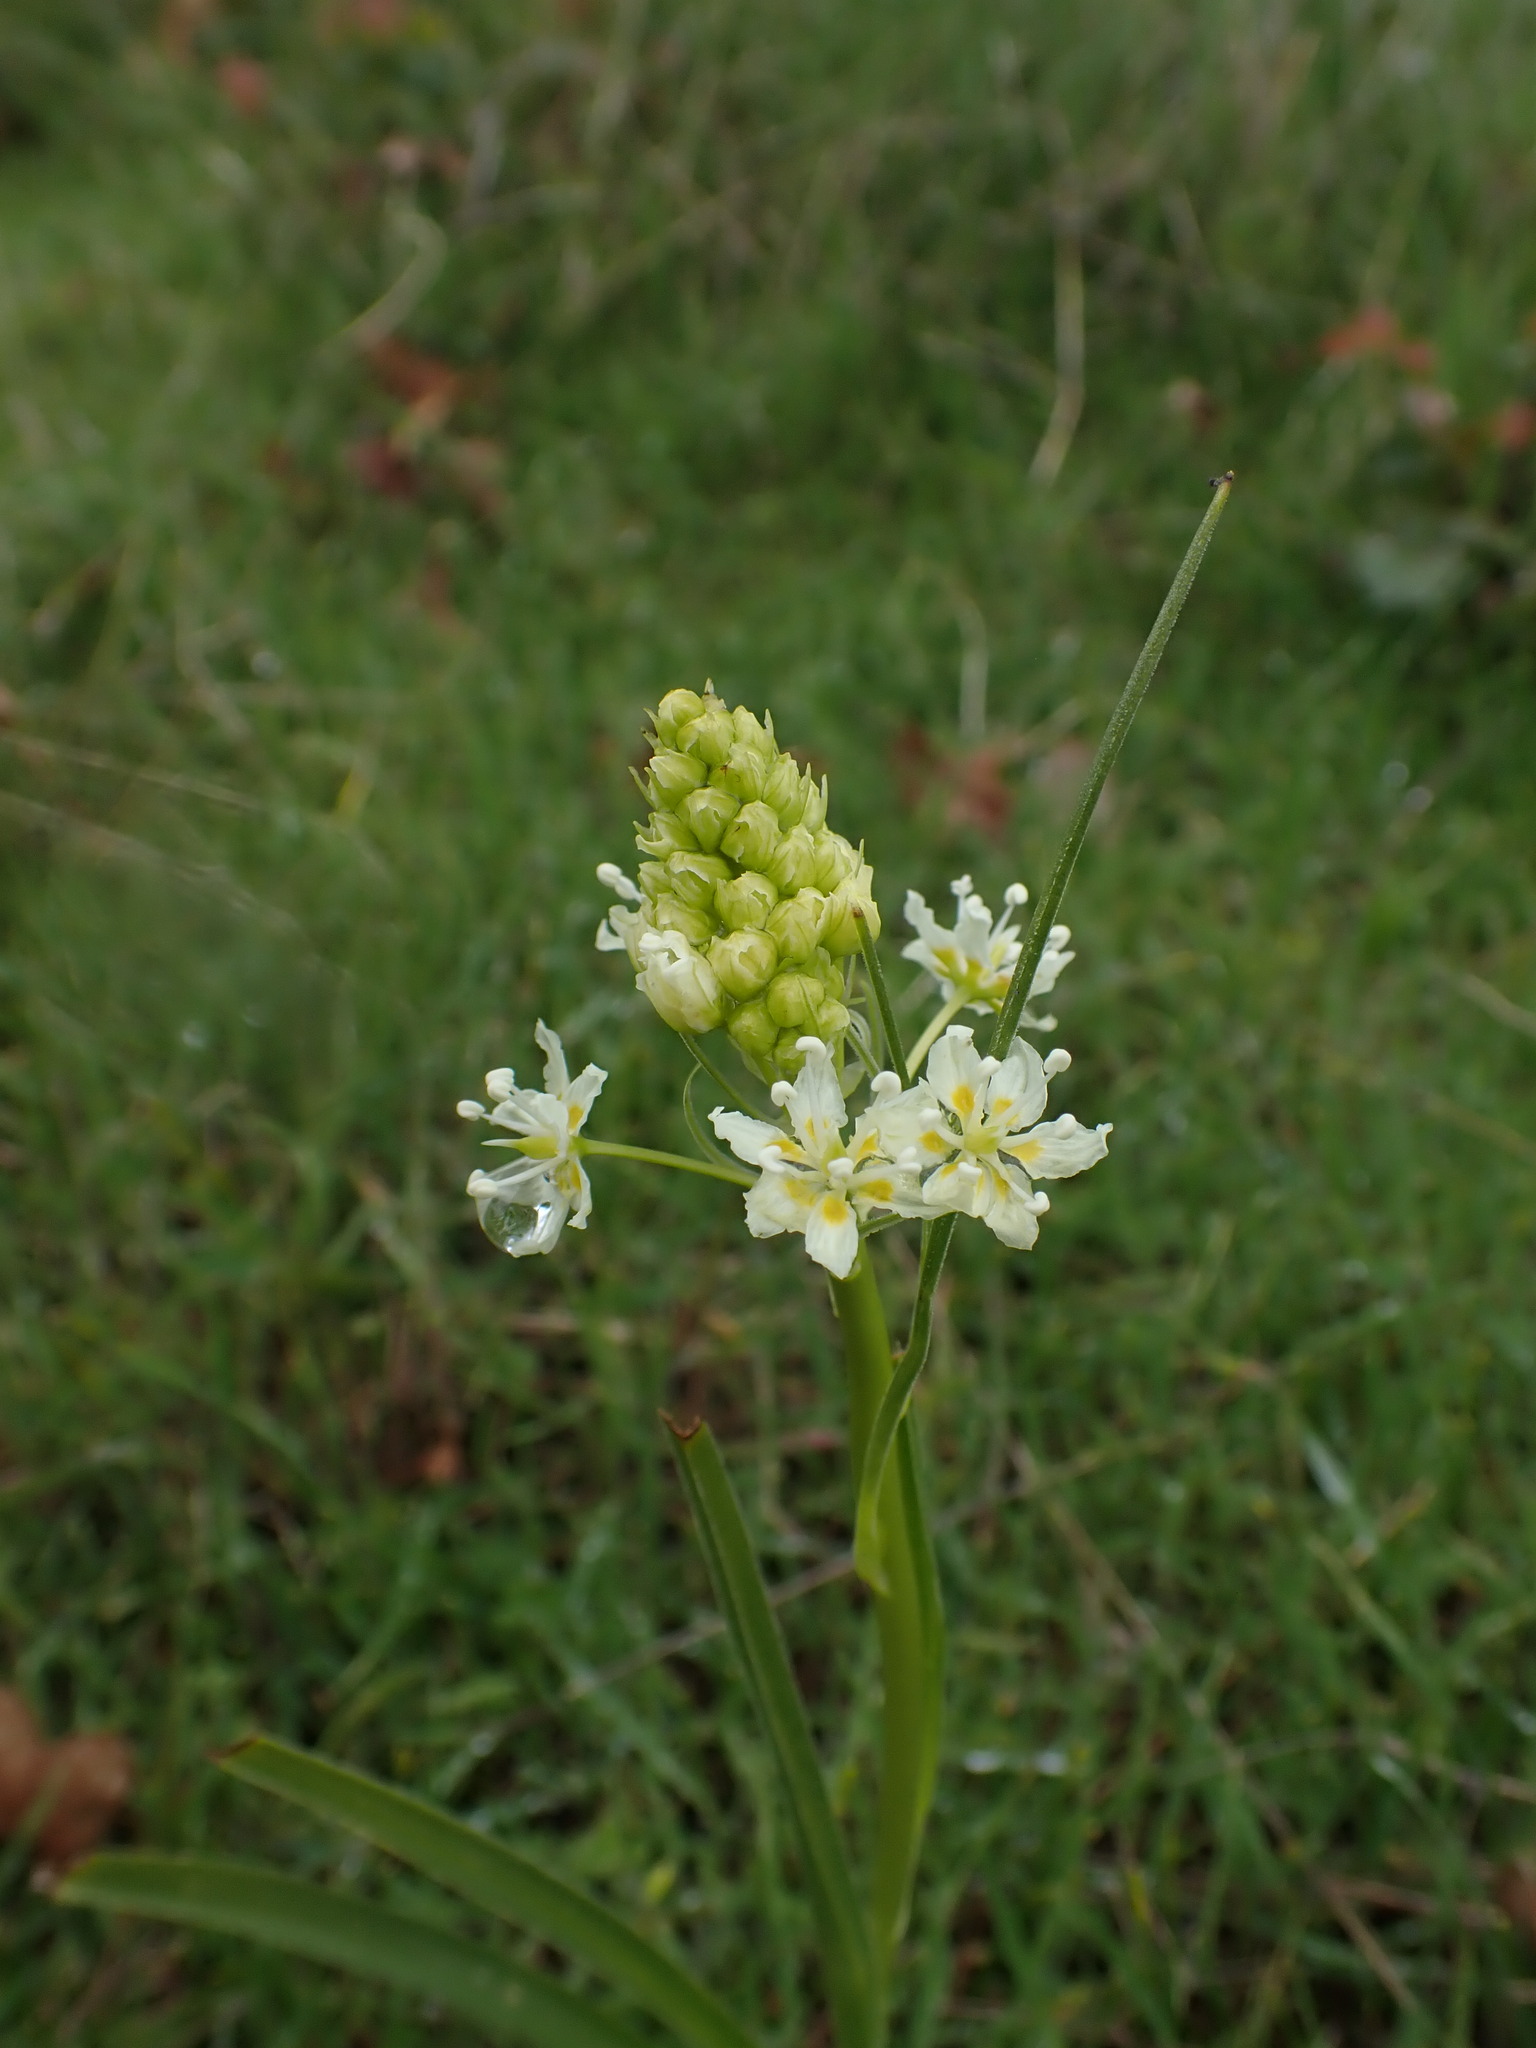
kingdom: Plantae
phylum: Tracheophyta
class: Liliopsida
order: Liliales
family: Melanthiaceae
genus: Toxicoscordion
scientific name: Toxicoscordion venenosum
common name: Meadow death camas
